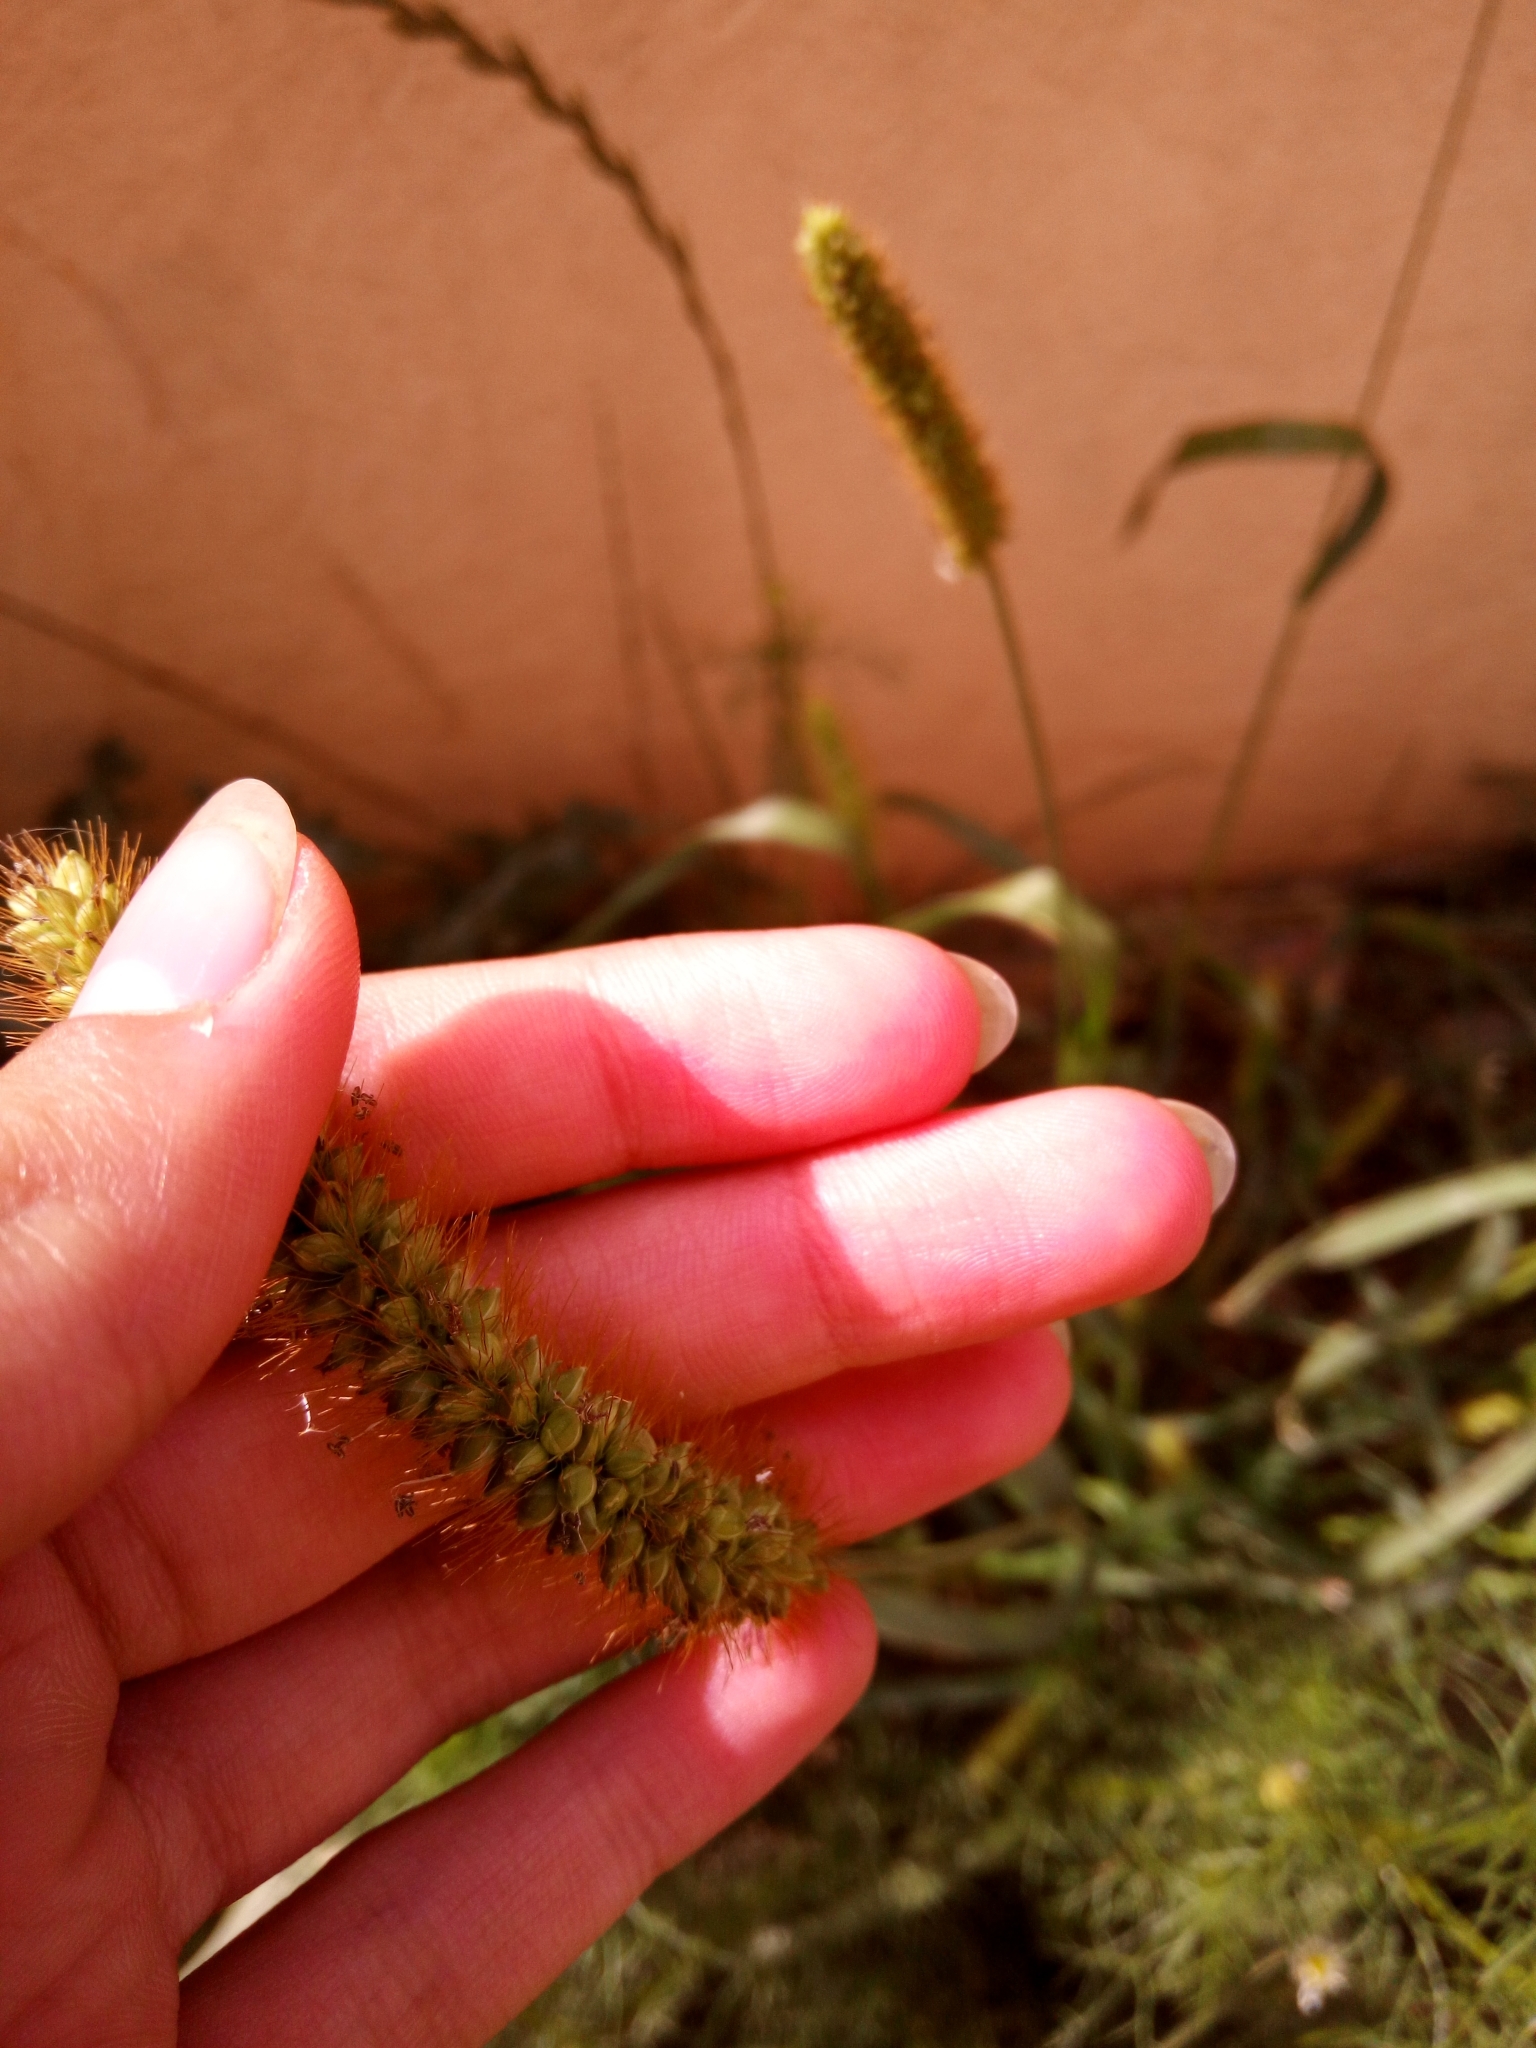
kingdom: Plantae
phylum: Tracheophyta
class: Liliopsida
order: Poales
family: Poaceae
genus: Setaria
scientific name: Setaria pumila
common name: Yellow bristle-grass
